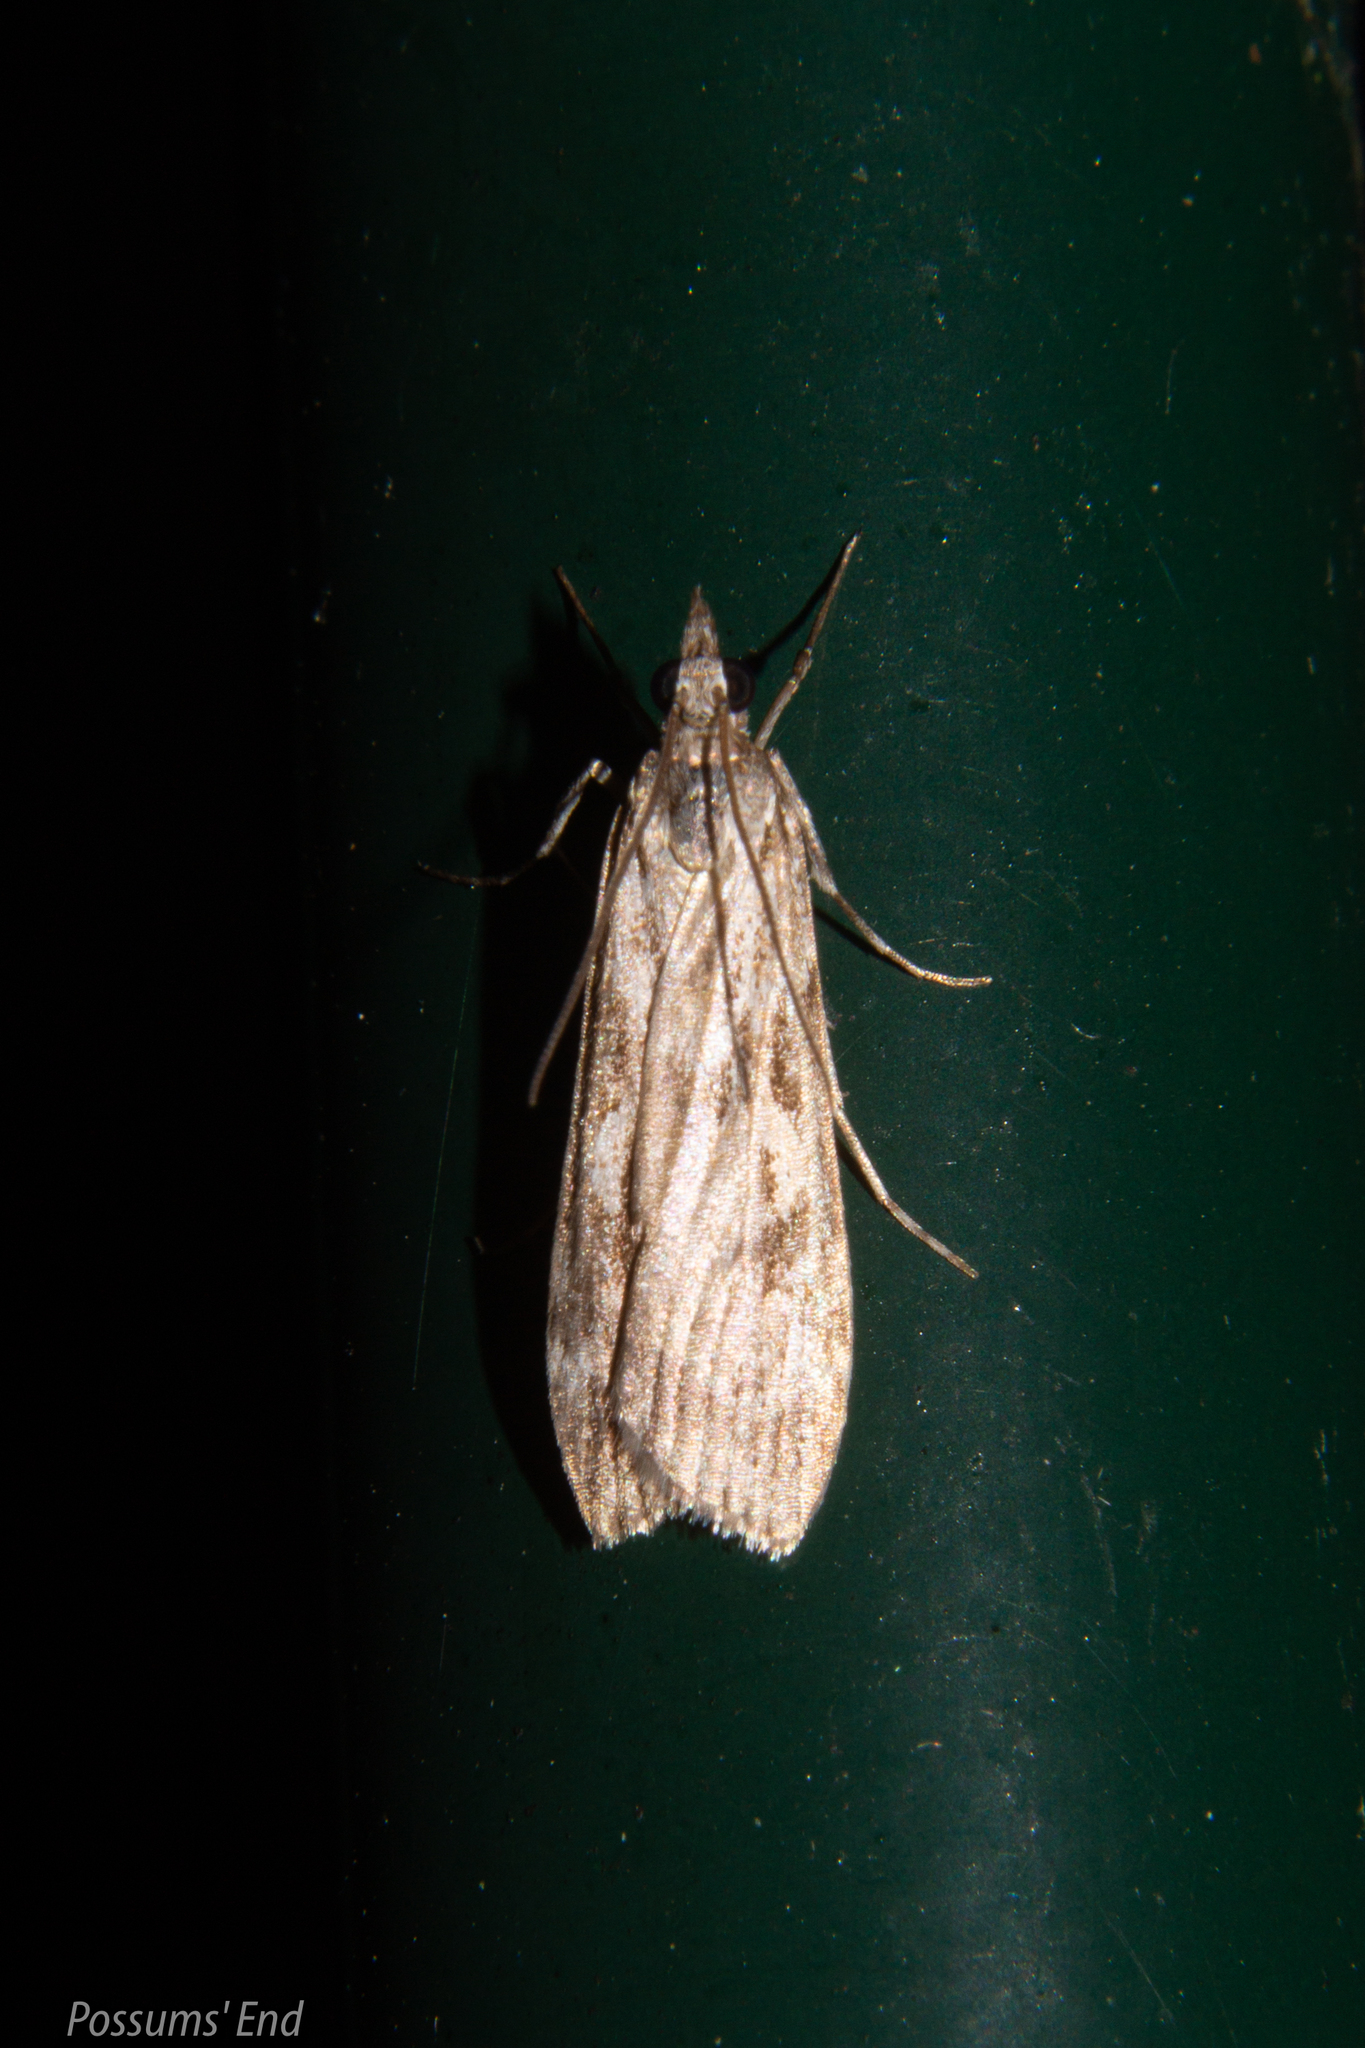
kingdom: Animalia
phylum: Arthropoda
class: Insecta
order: Lepidoptera
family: Crambidae
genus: Scoparia
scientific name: Scoparia halopis
